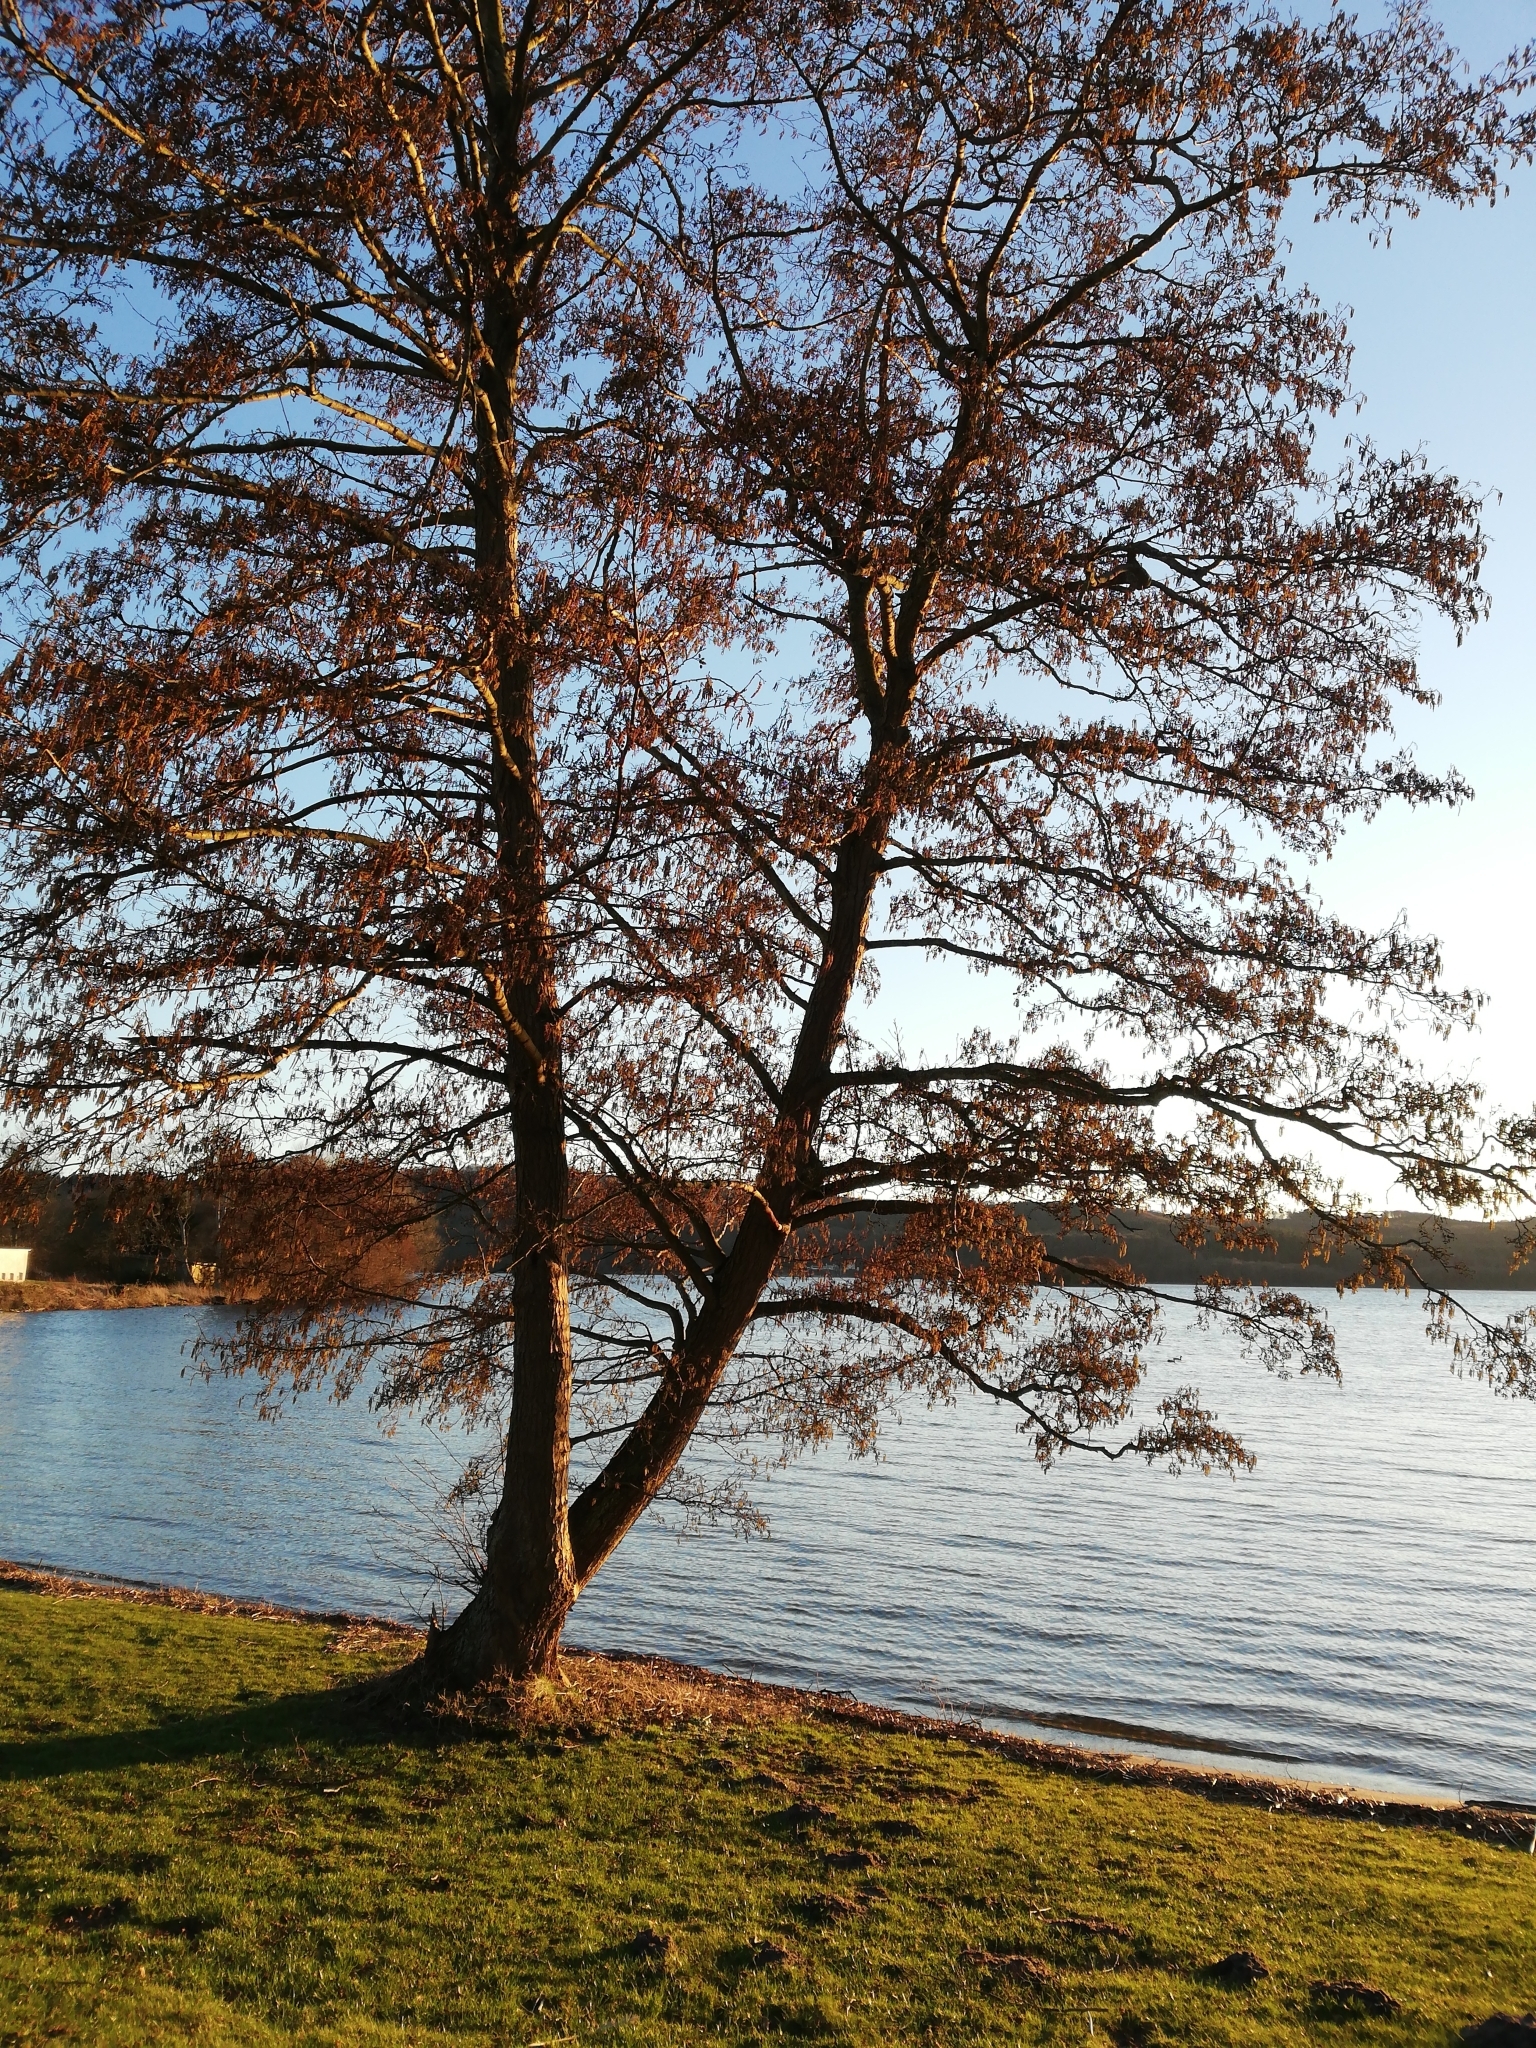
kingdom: Plantae
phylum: Tracheophyta
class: Magnoliopsida
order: Fagales
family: Betulaceae
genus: Alnus
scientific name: Alnus glutinosa
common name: Black alder
